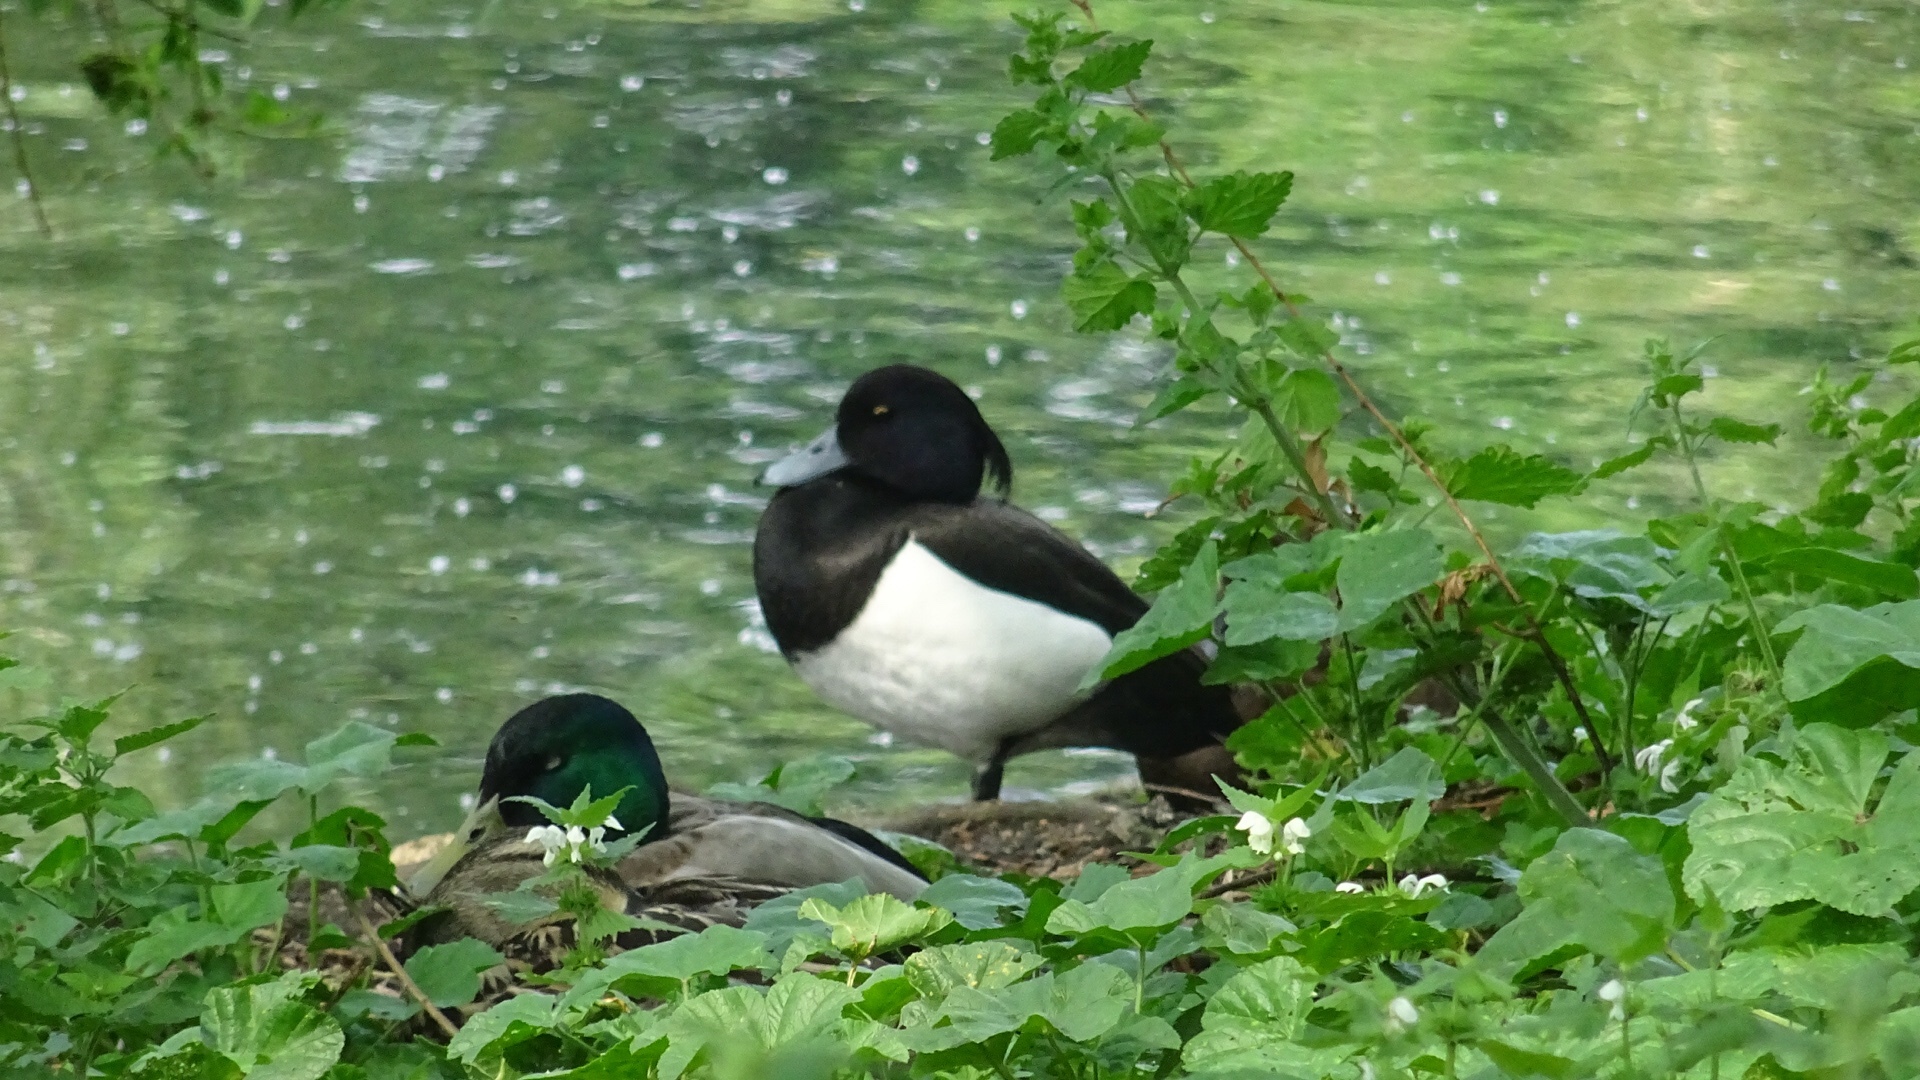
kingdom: Animalia
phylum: Chordata
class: Aves
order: Anseriformes
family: Anatidae
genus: Aythya
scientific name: Aythya fuligula
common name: Tufted duck
